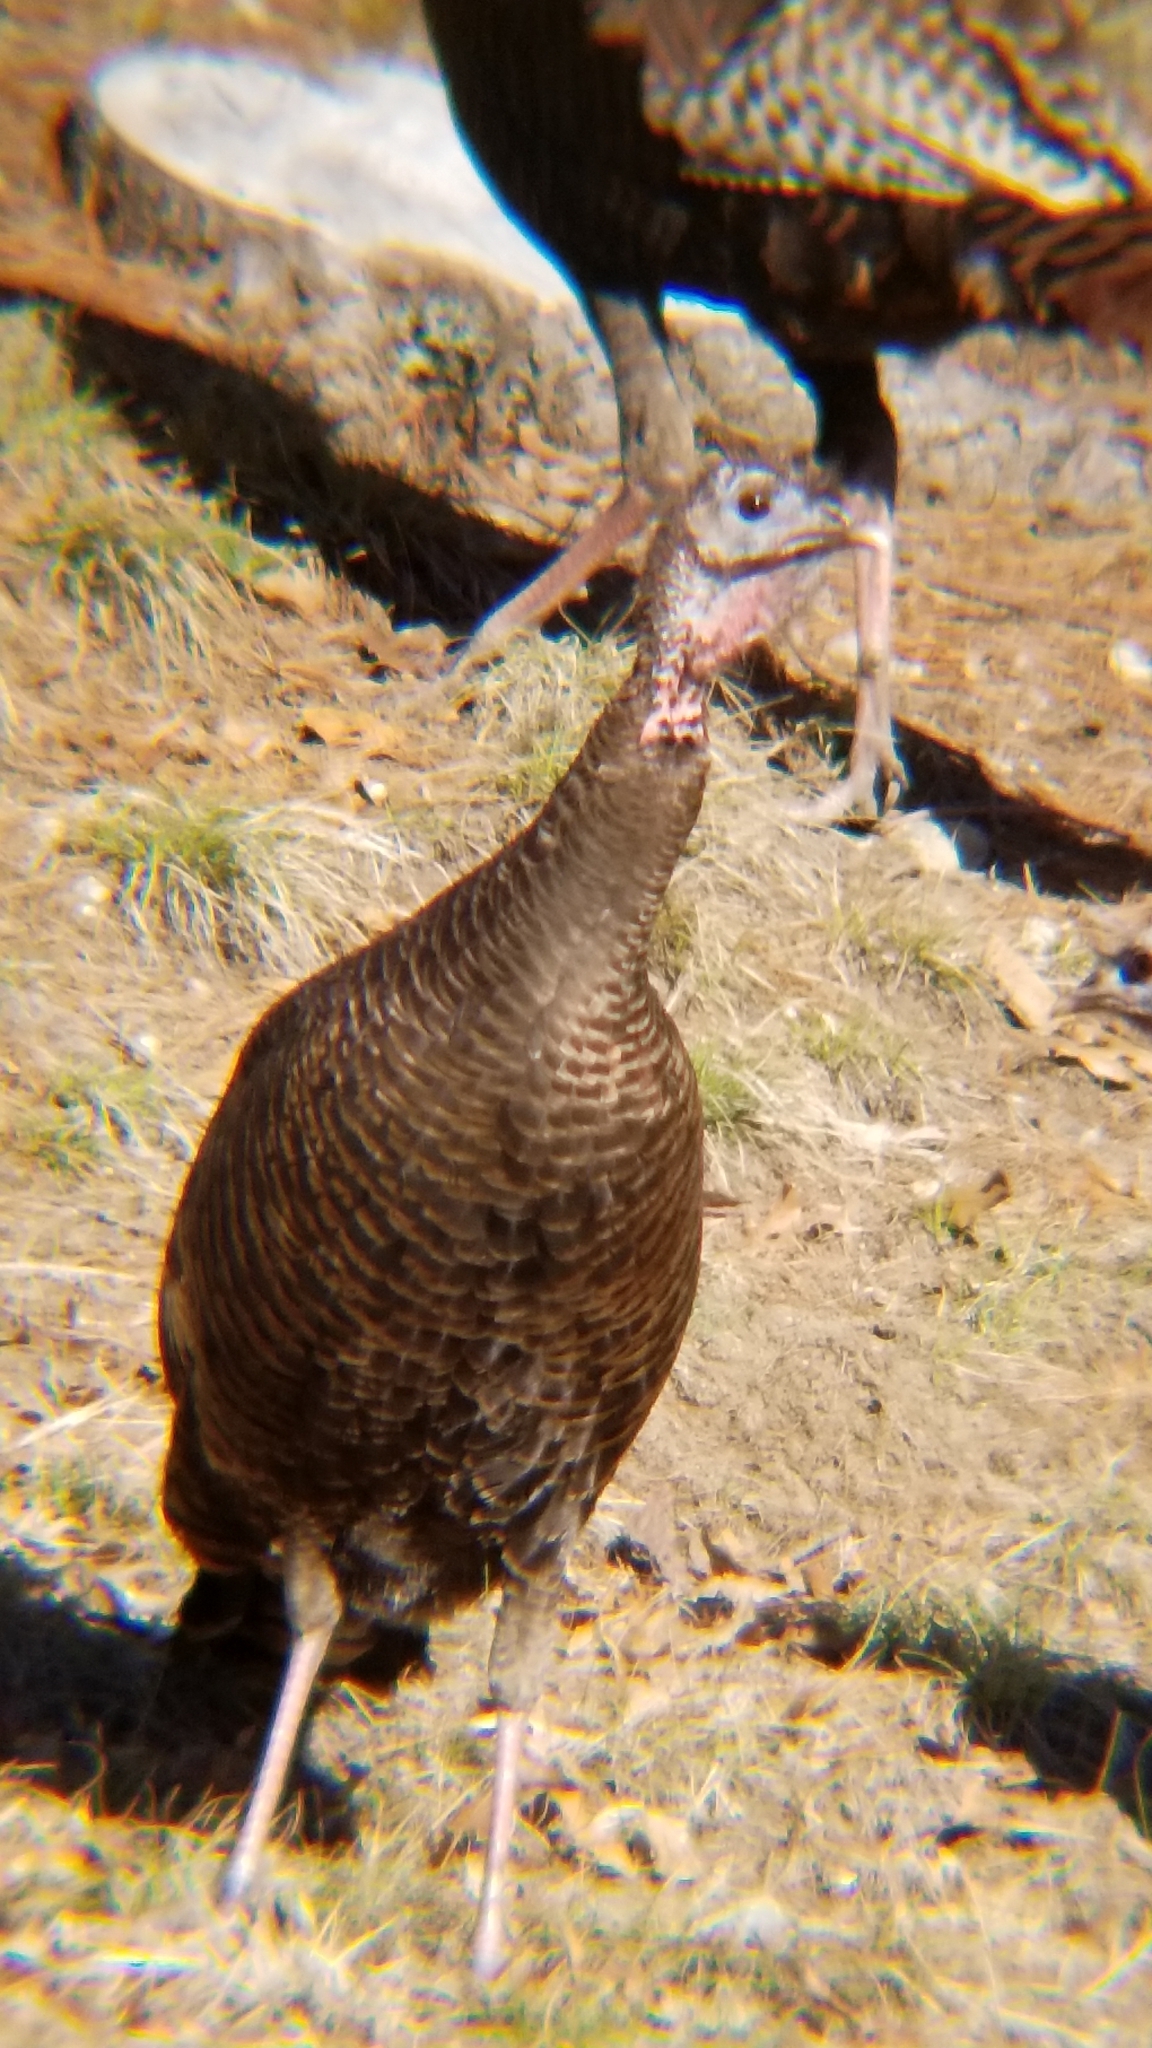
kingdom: Animalia
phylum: Chordata
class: Aves
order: Galliformes
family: Phasianidae
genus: Meleagris
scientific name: Meleagris gallopavo
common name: Wild turkey
